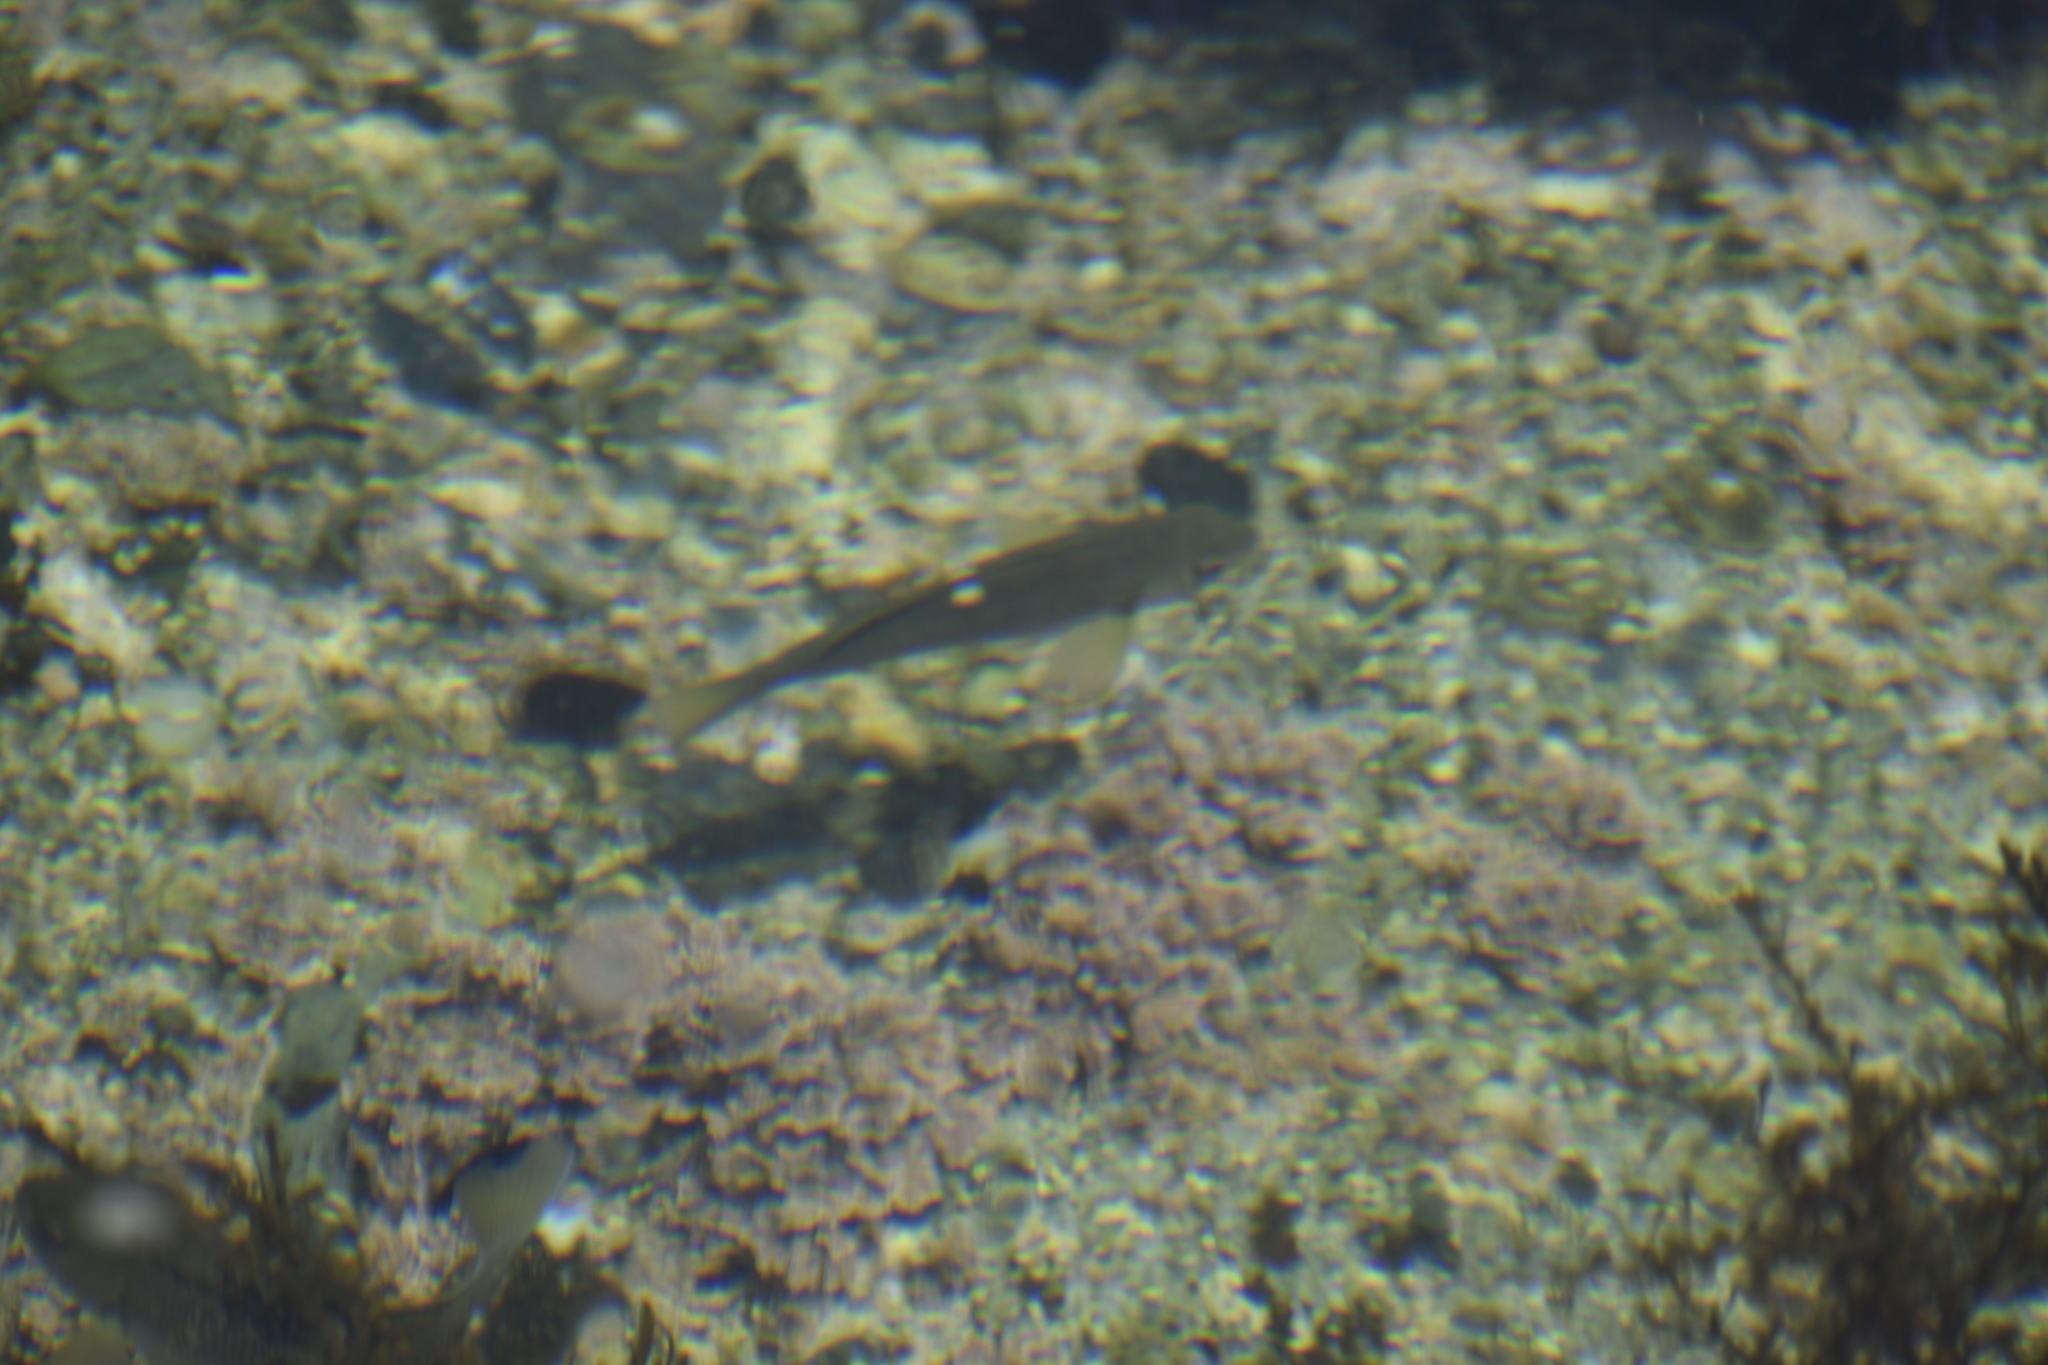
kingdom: Animalia
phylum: Chordata
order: Perciformes
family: Kyphosidae
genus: Girella
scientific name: Girella nigricans
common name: Opaleye
